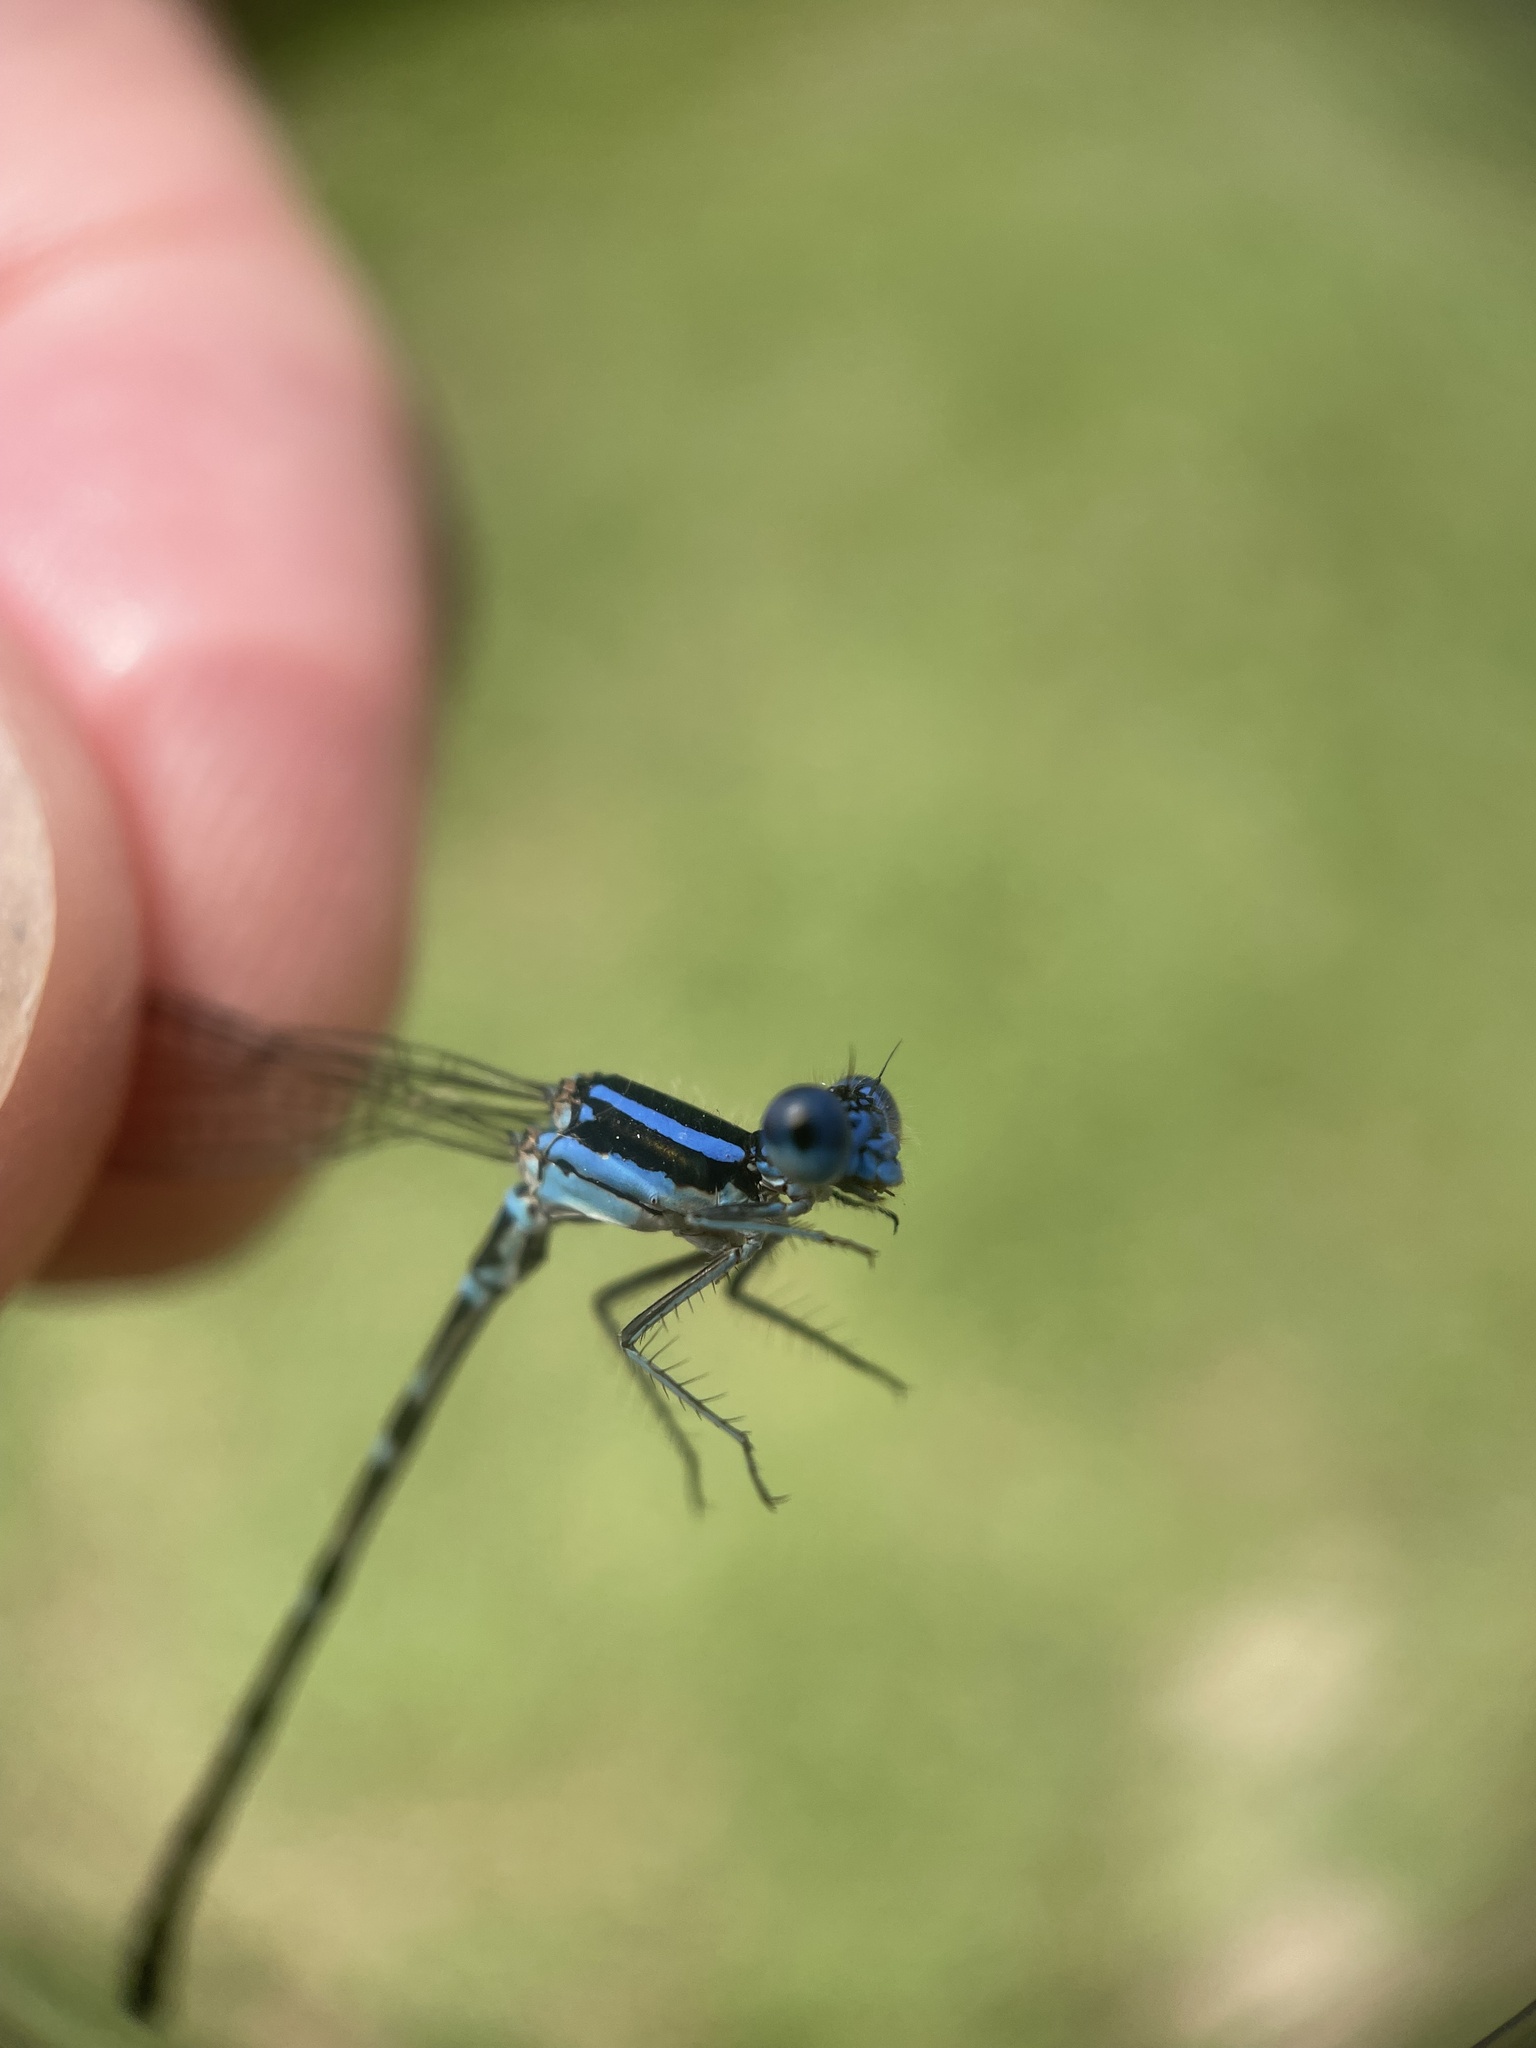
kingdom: Animalia
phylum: Arthropoda
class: Insecta
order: Odonata
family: Coenagrionidae
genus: Argia
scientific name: Argia sedula
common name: Blue-ringed dancer
